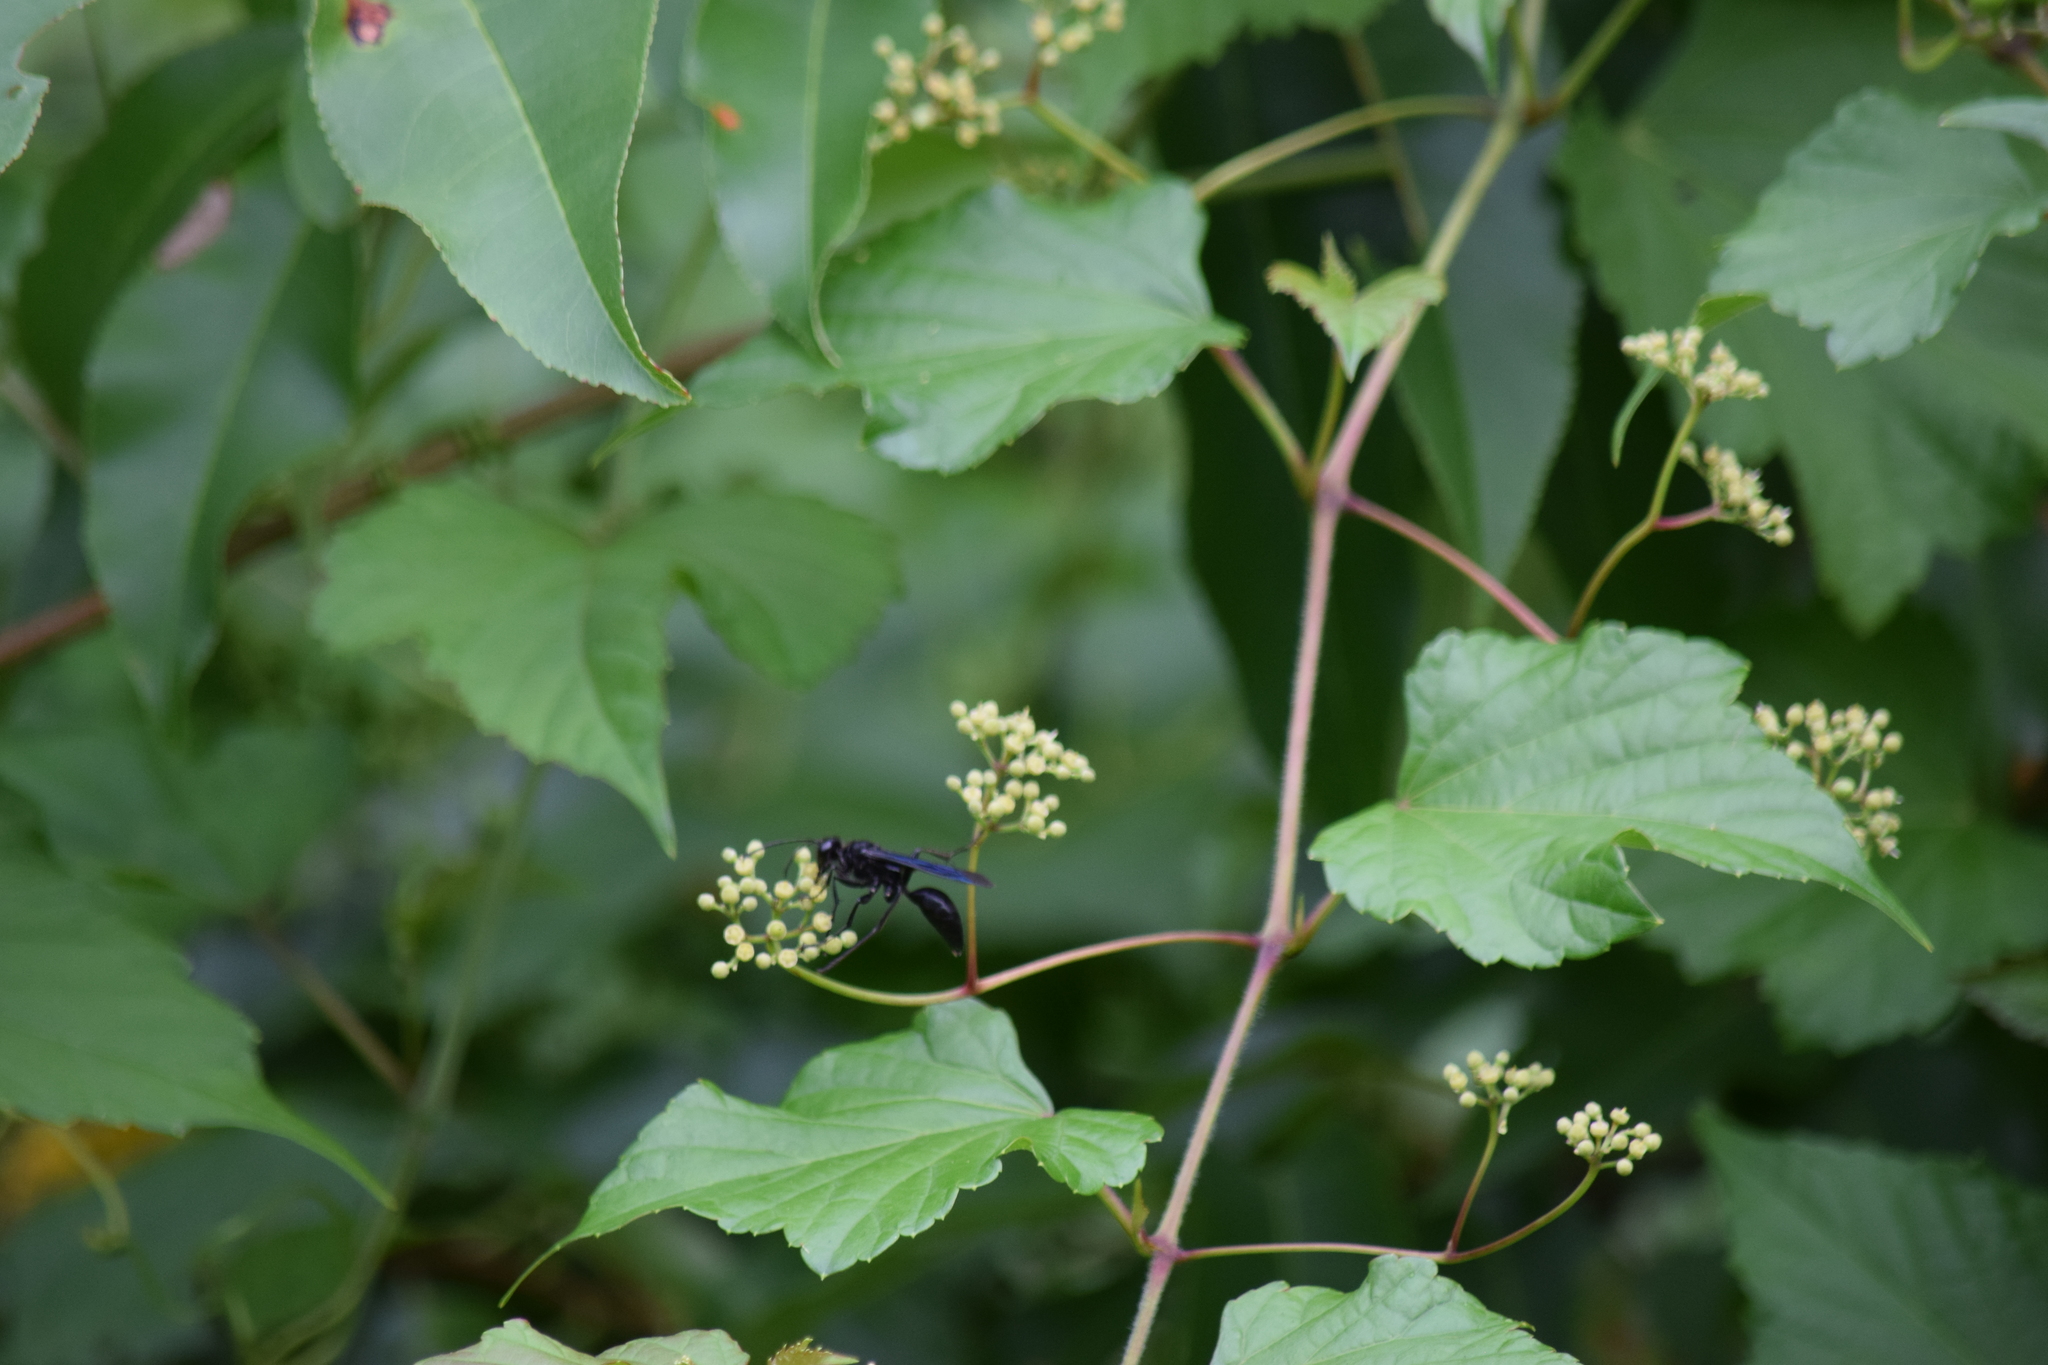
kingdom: Animalia
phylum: Arthropoda
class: Insecta
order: Hymenoptera
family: Sphecidae
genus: Sphex
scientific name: Sphex pensylvanicus
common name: Great black digger wasp
